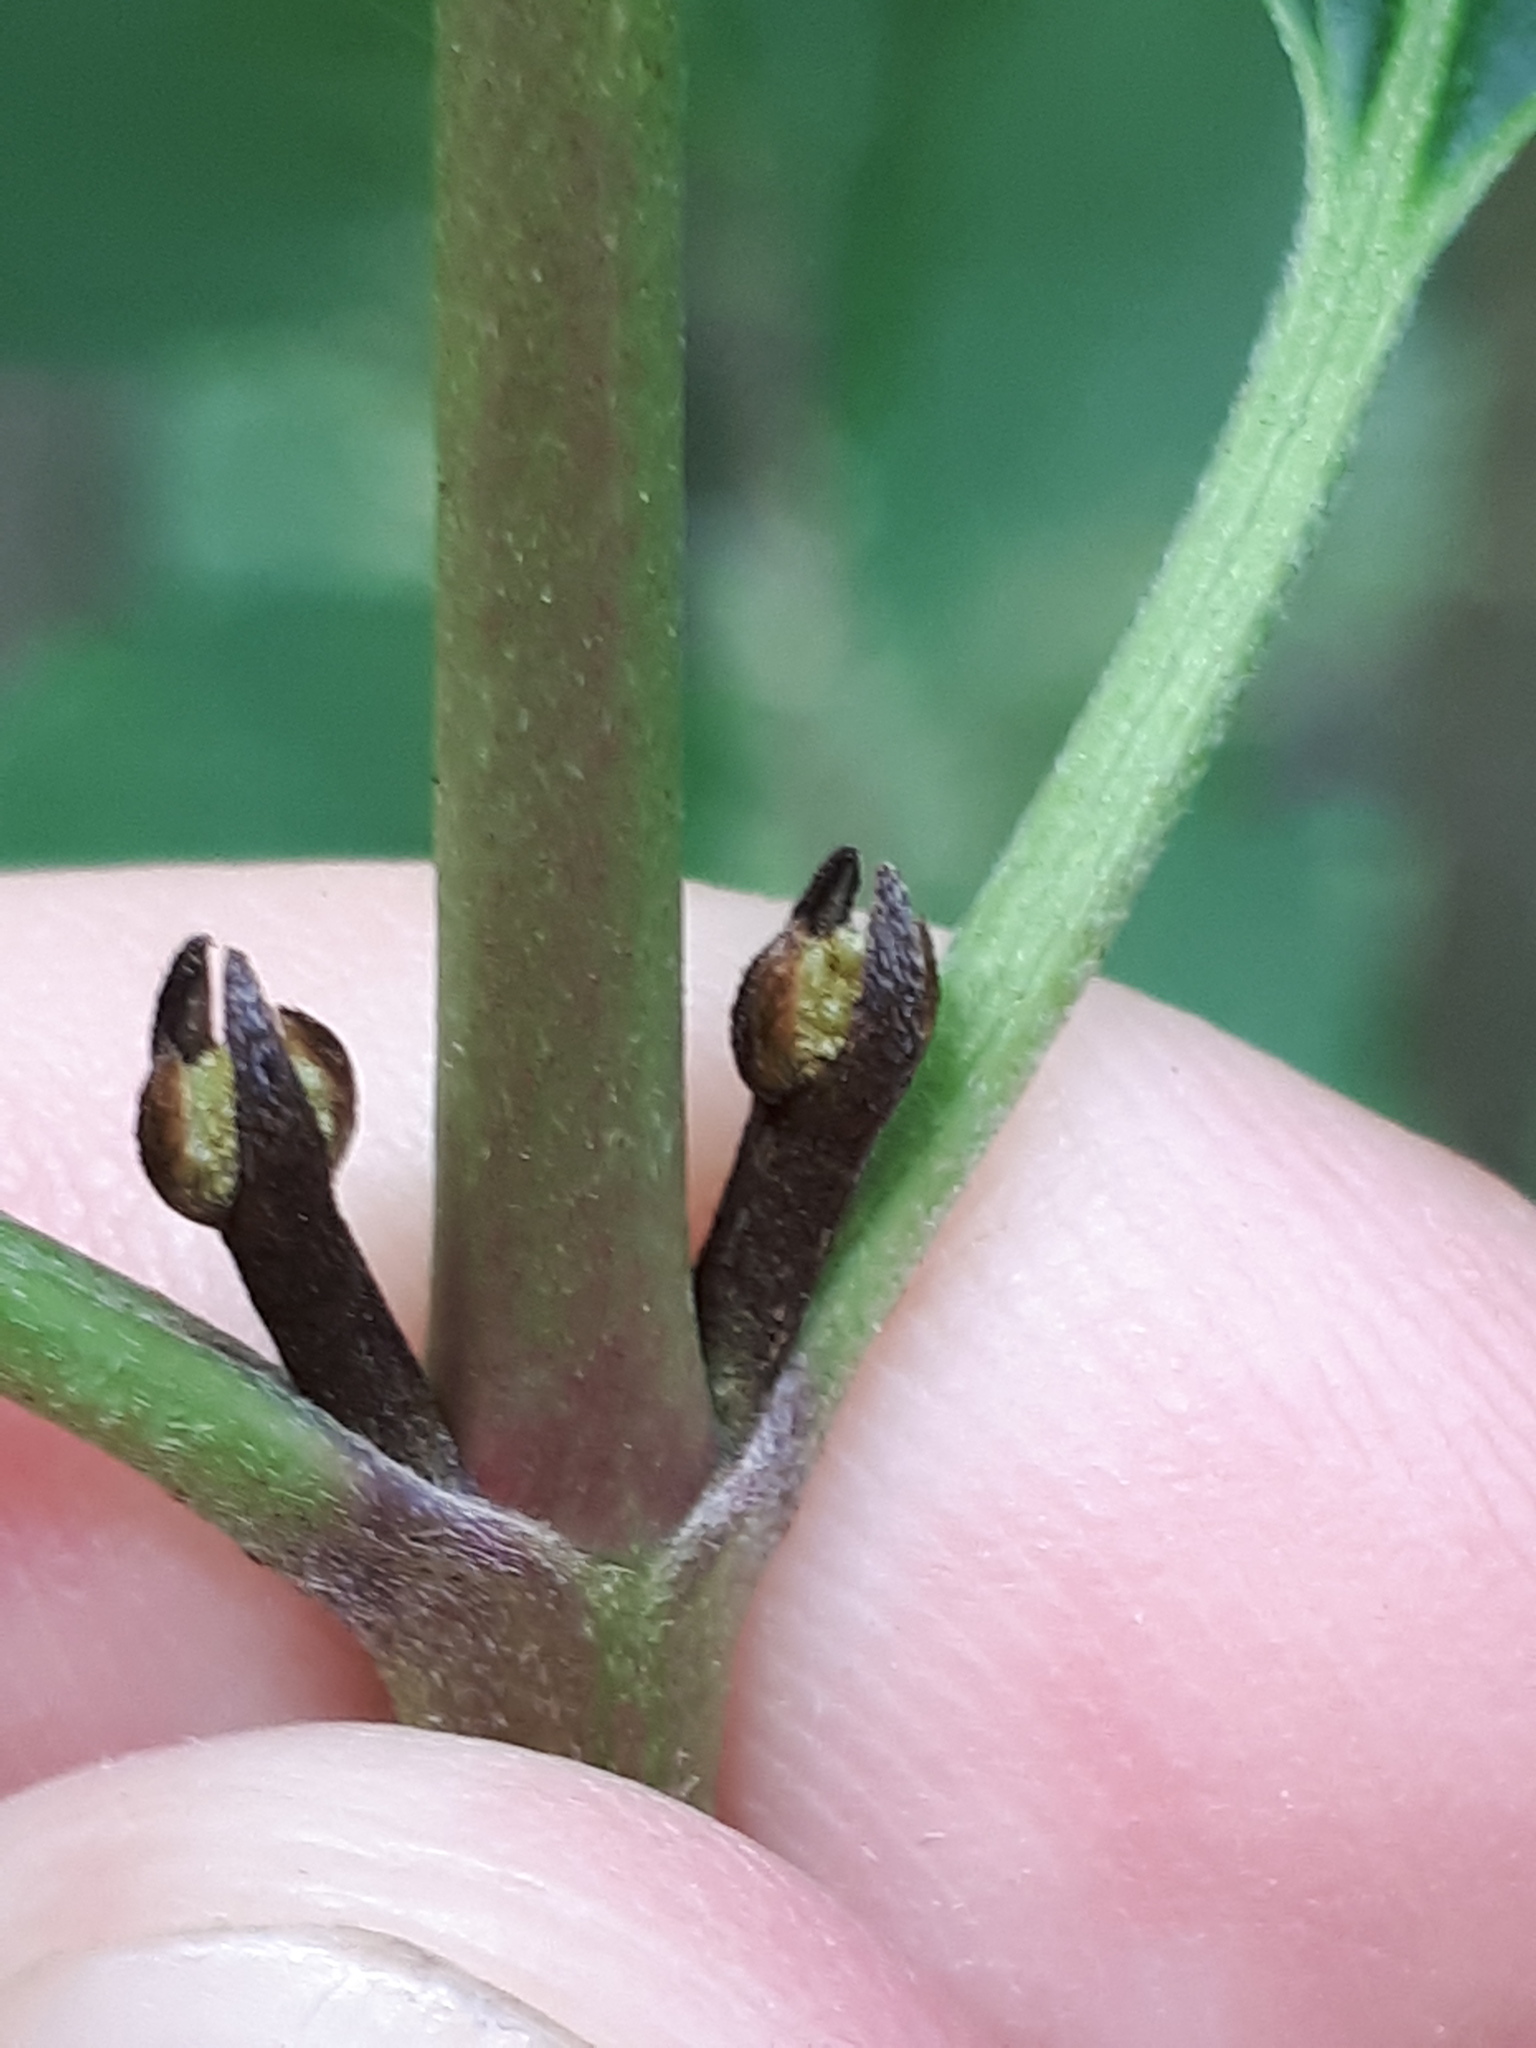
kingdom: Plantae
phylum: Tracheophyta
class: Magnoliopsida
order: Cornales
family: Cornaceae
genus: Cornus
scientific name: Cornus sanguinea
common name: Dogwood
